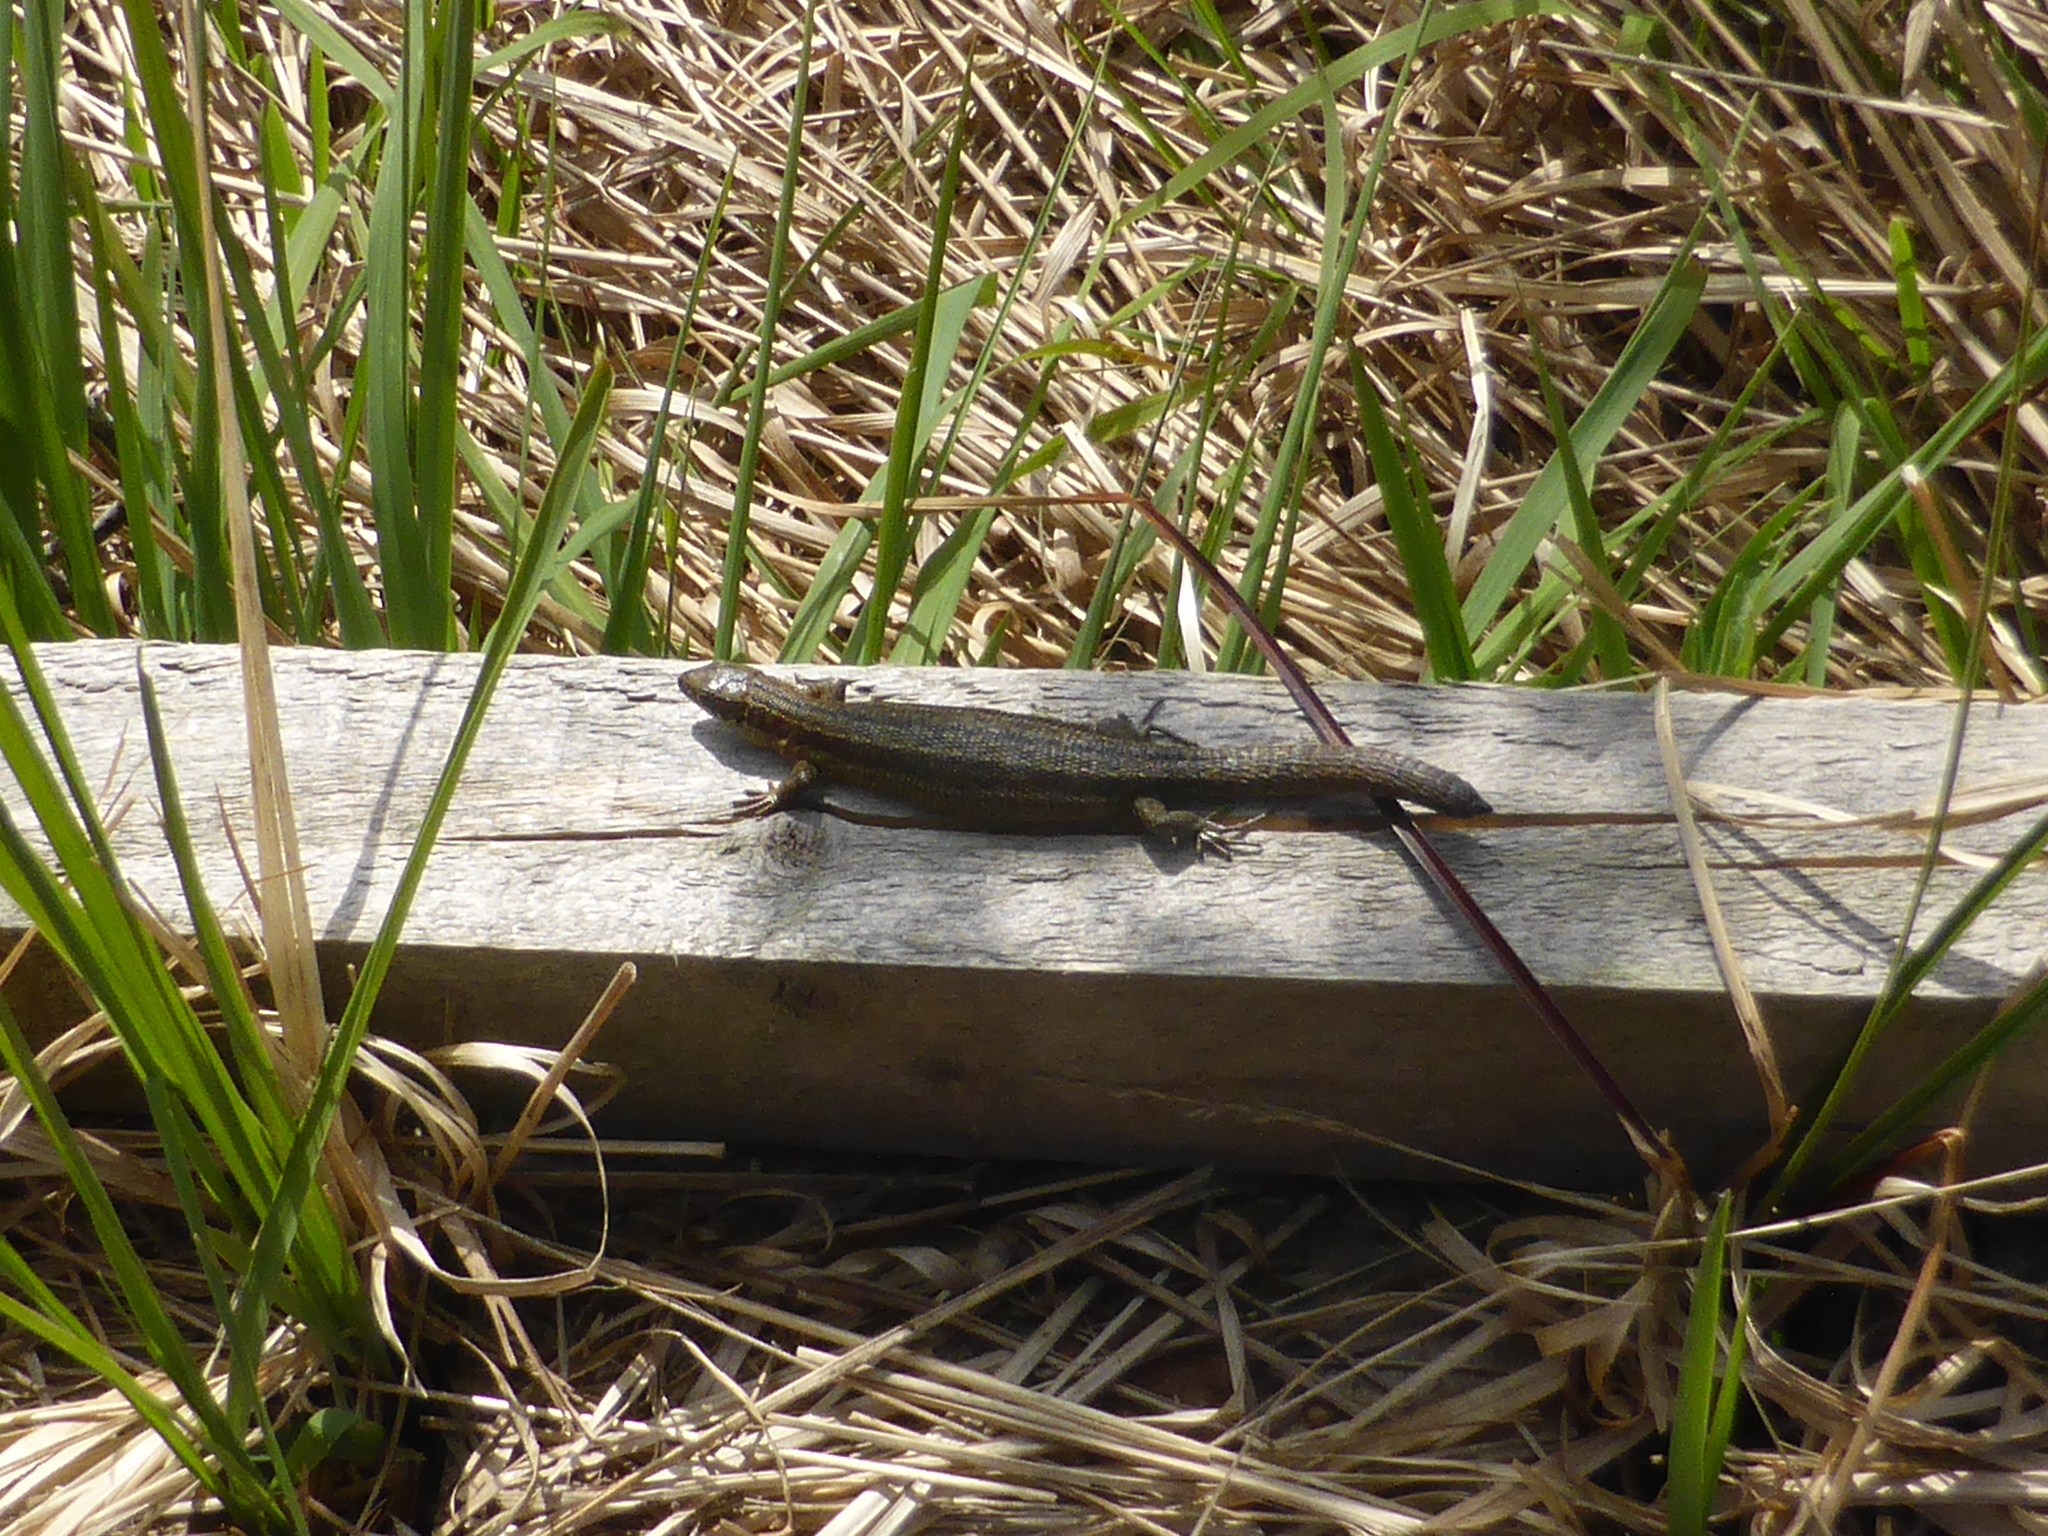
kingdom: Animalia
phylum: Chordata
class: Squamata
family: Lacertidae
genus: Zootoca
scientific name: Zootoca vivipara
